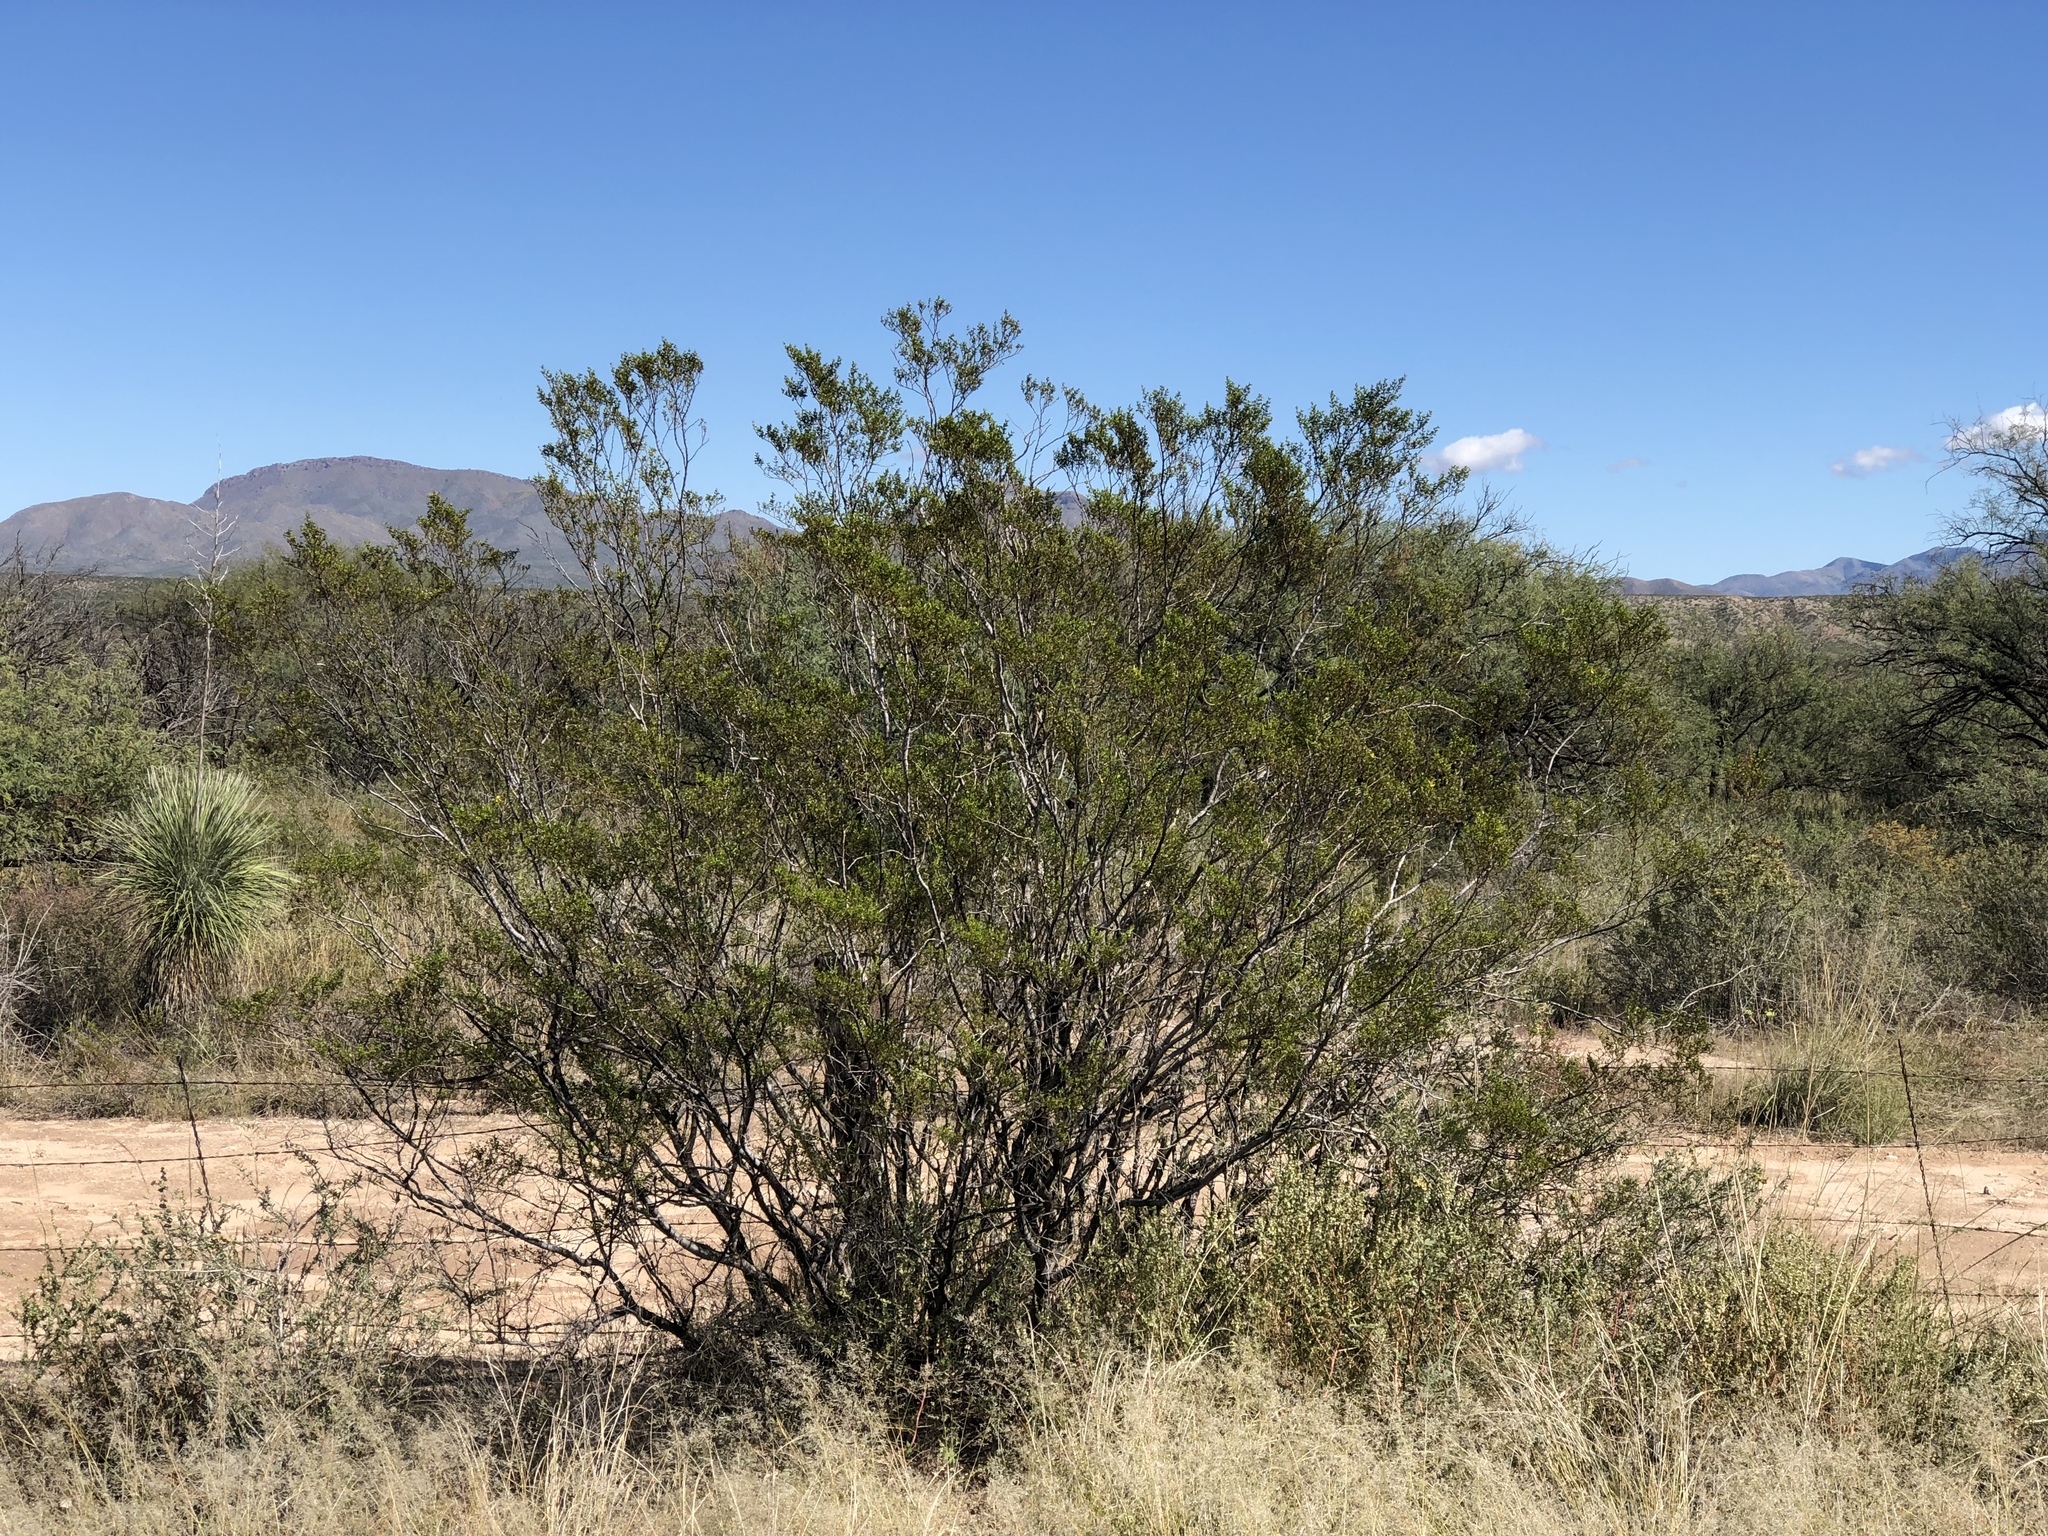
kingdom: Plantae
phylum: Tracheophyta
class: Magnoliopsida
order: Zygophyllales
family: Zygophyllaceae
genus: Larrea
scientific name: Larrea tridentata
